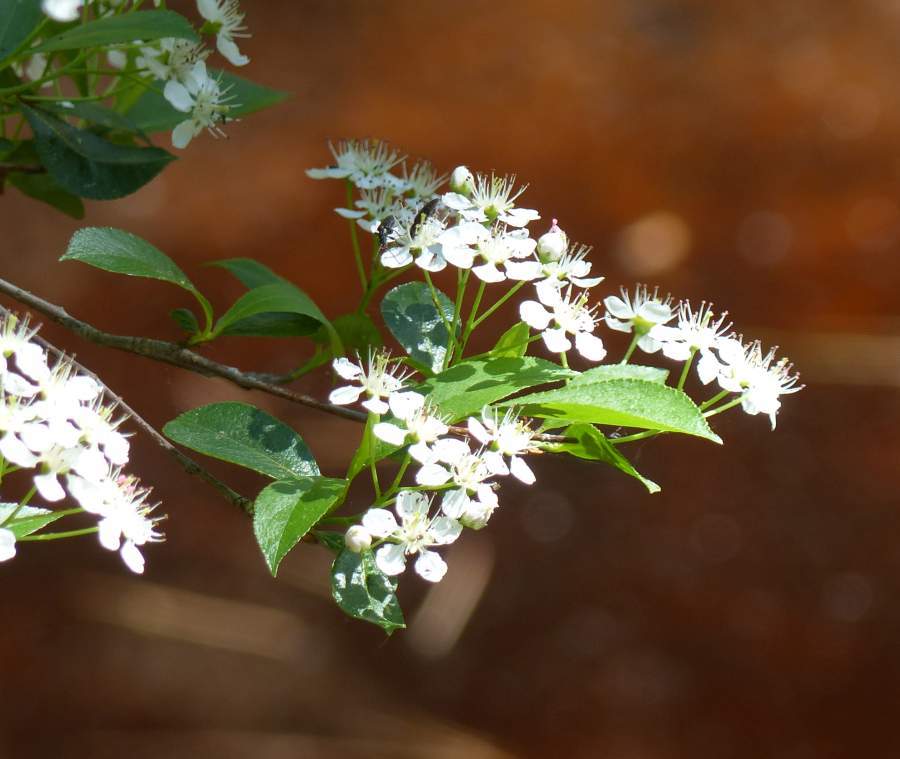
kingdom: Plantae
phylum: Tracheophyta
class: Magnoliopsida
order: Rosales
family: Rosaceae
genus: Aronia
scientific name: Aronia melanocarpa
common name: Black chokeberry
